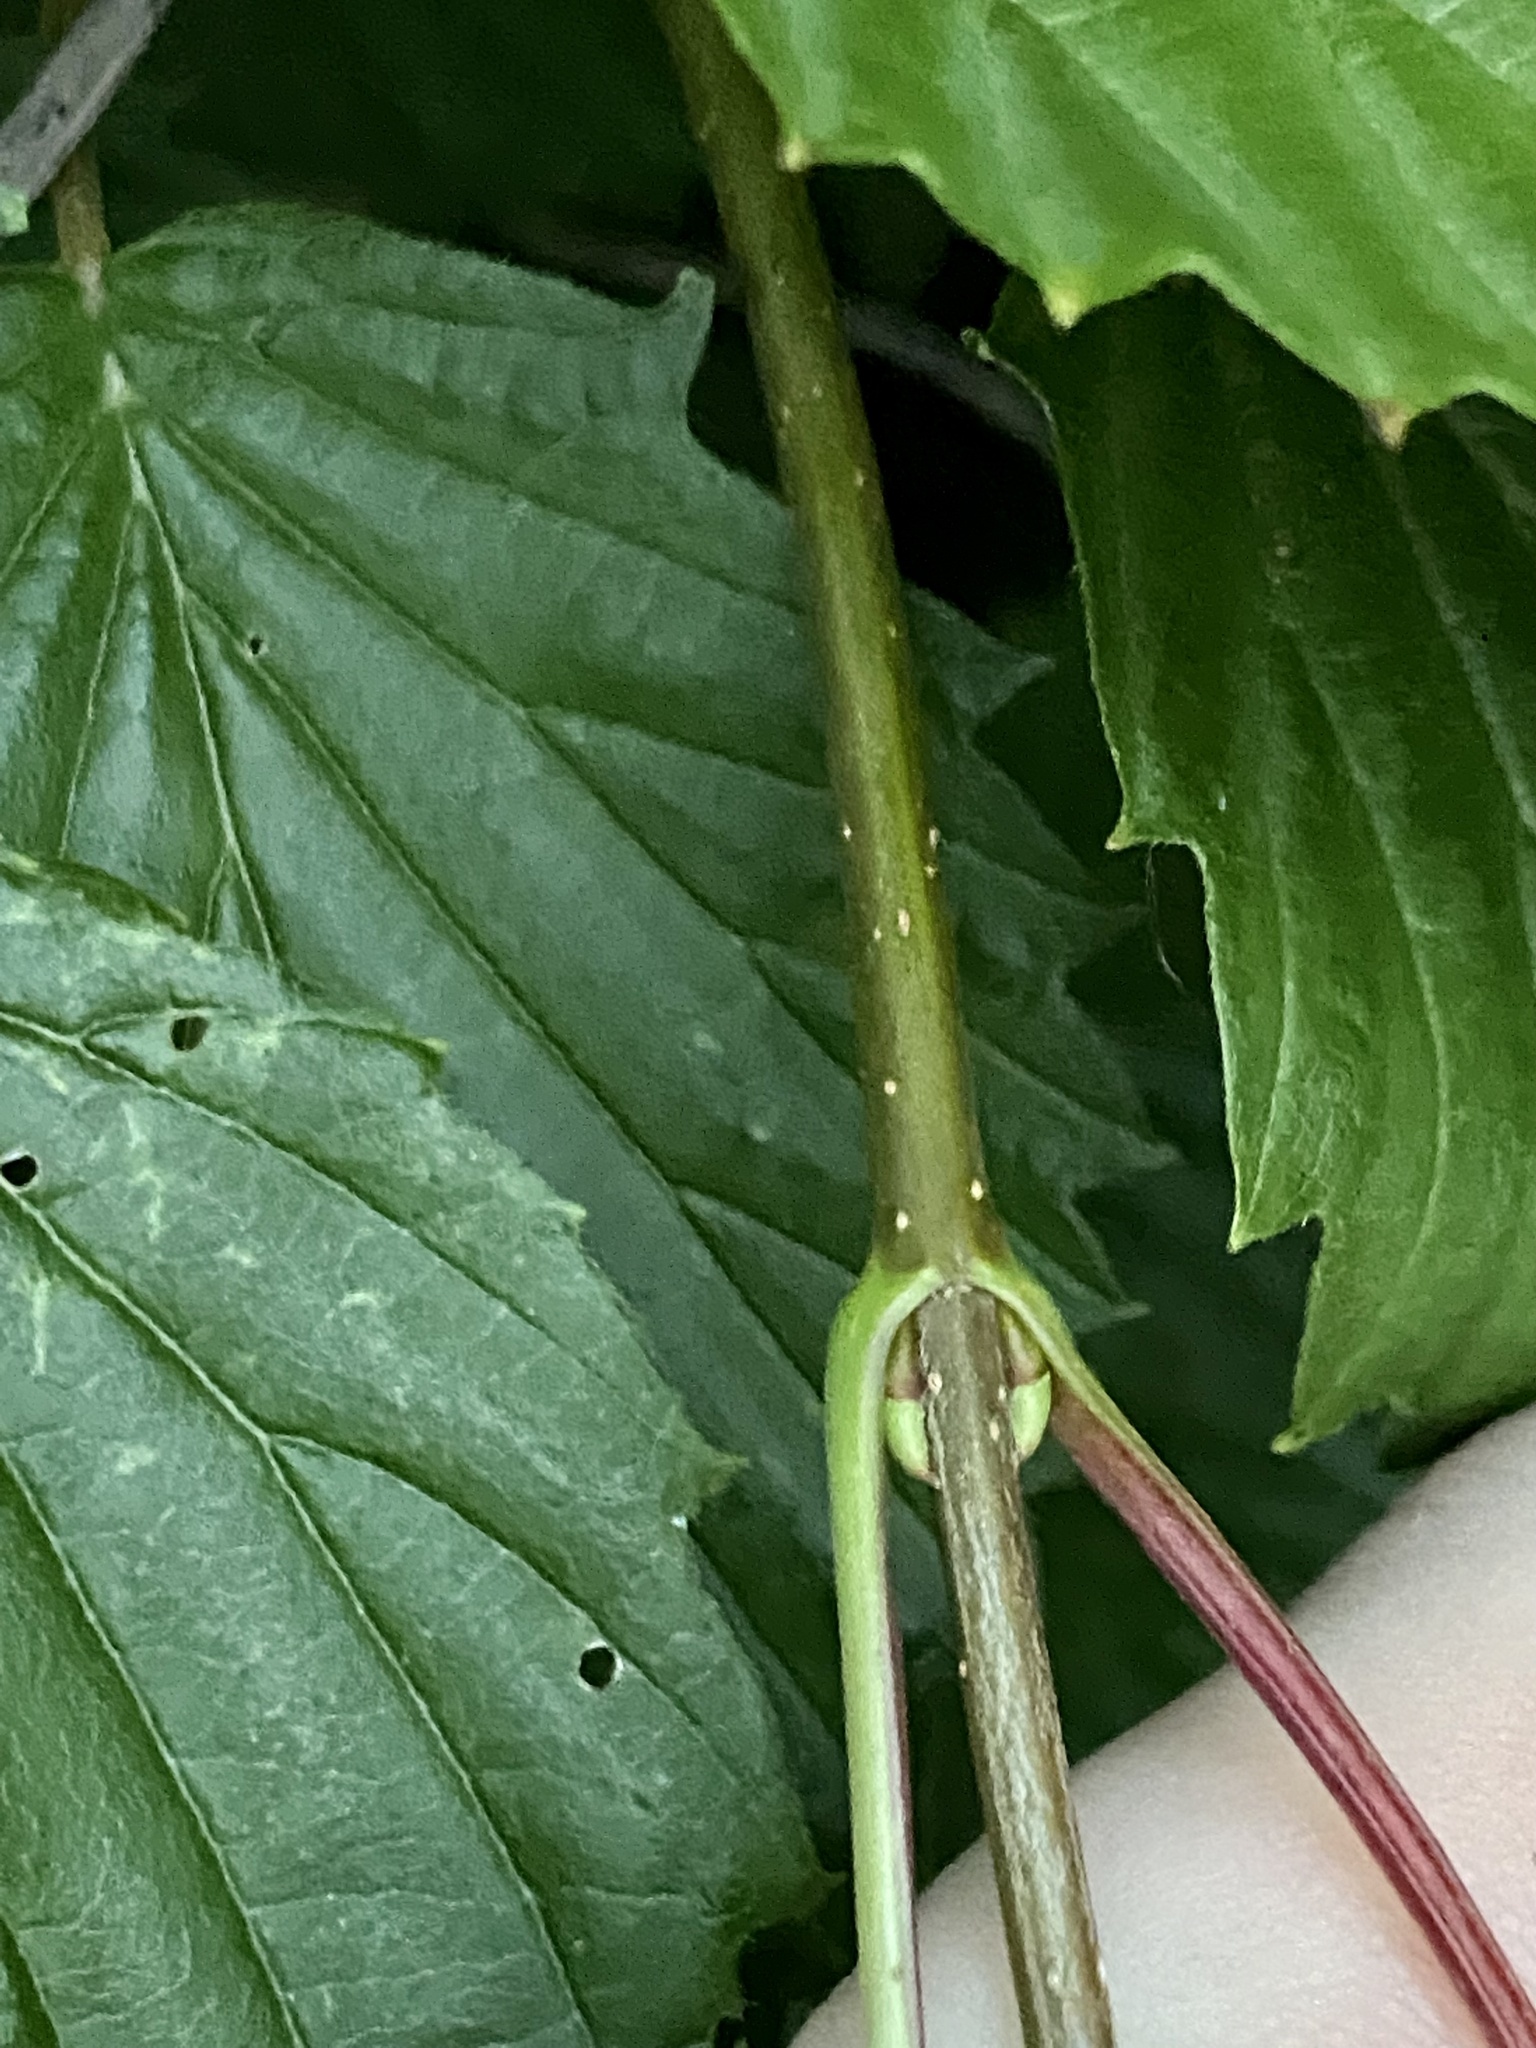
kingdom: Plantae
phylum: Tracheophyta
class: Magnoliopsida
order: Dipsacales
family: Viburnaceae
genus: Viburnum
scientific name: Viburnum recognitum
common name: Northern arrow-wood
